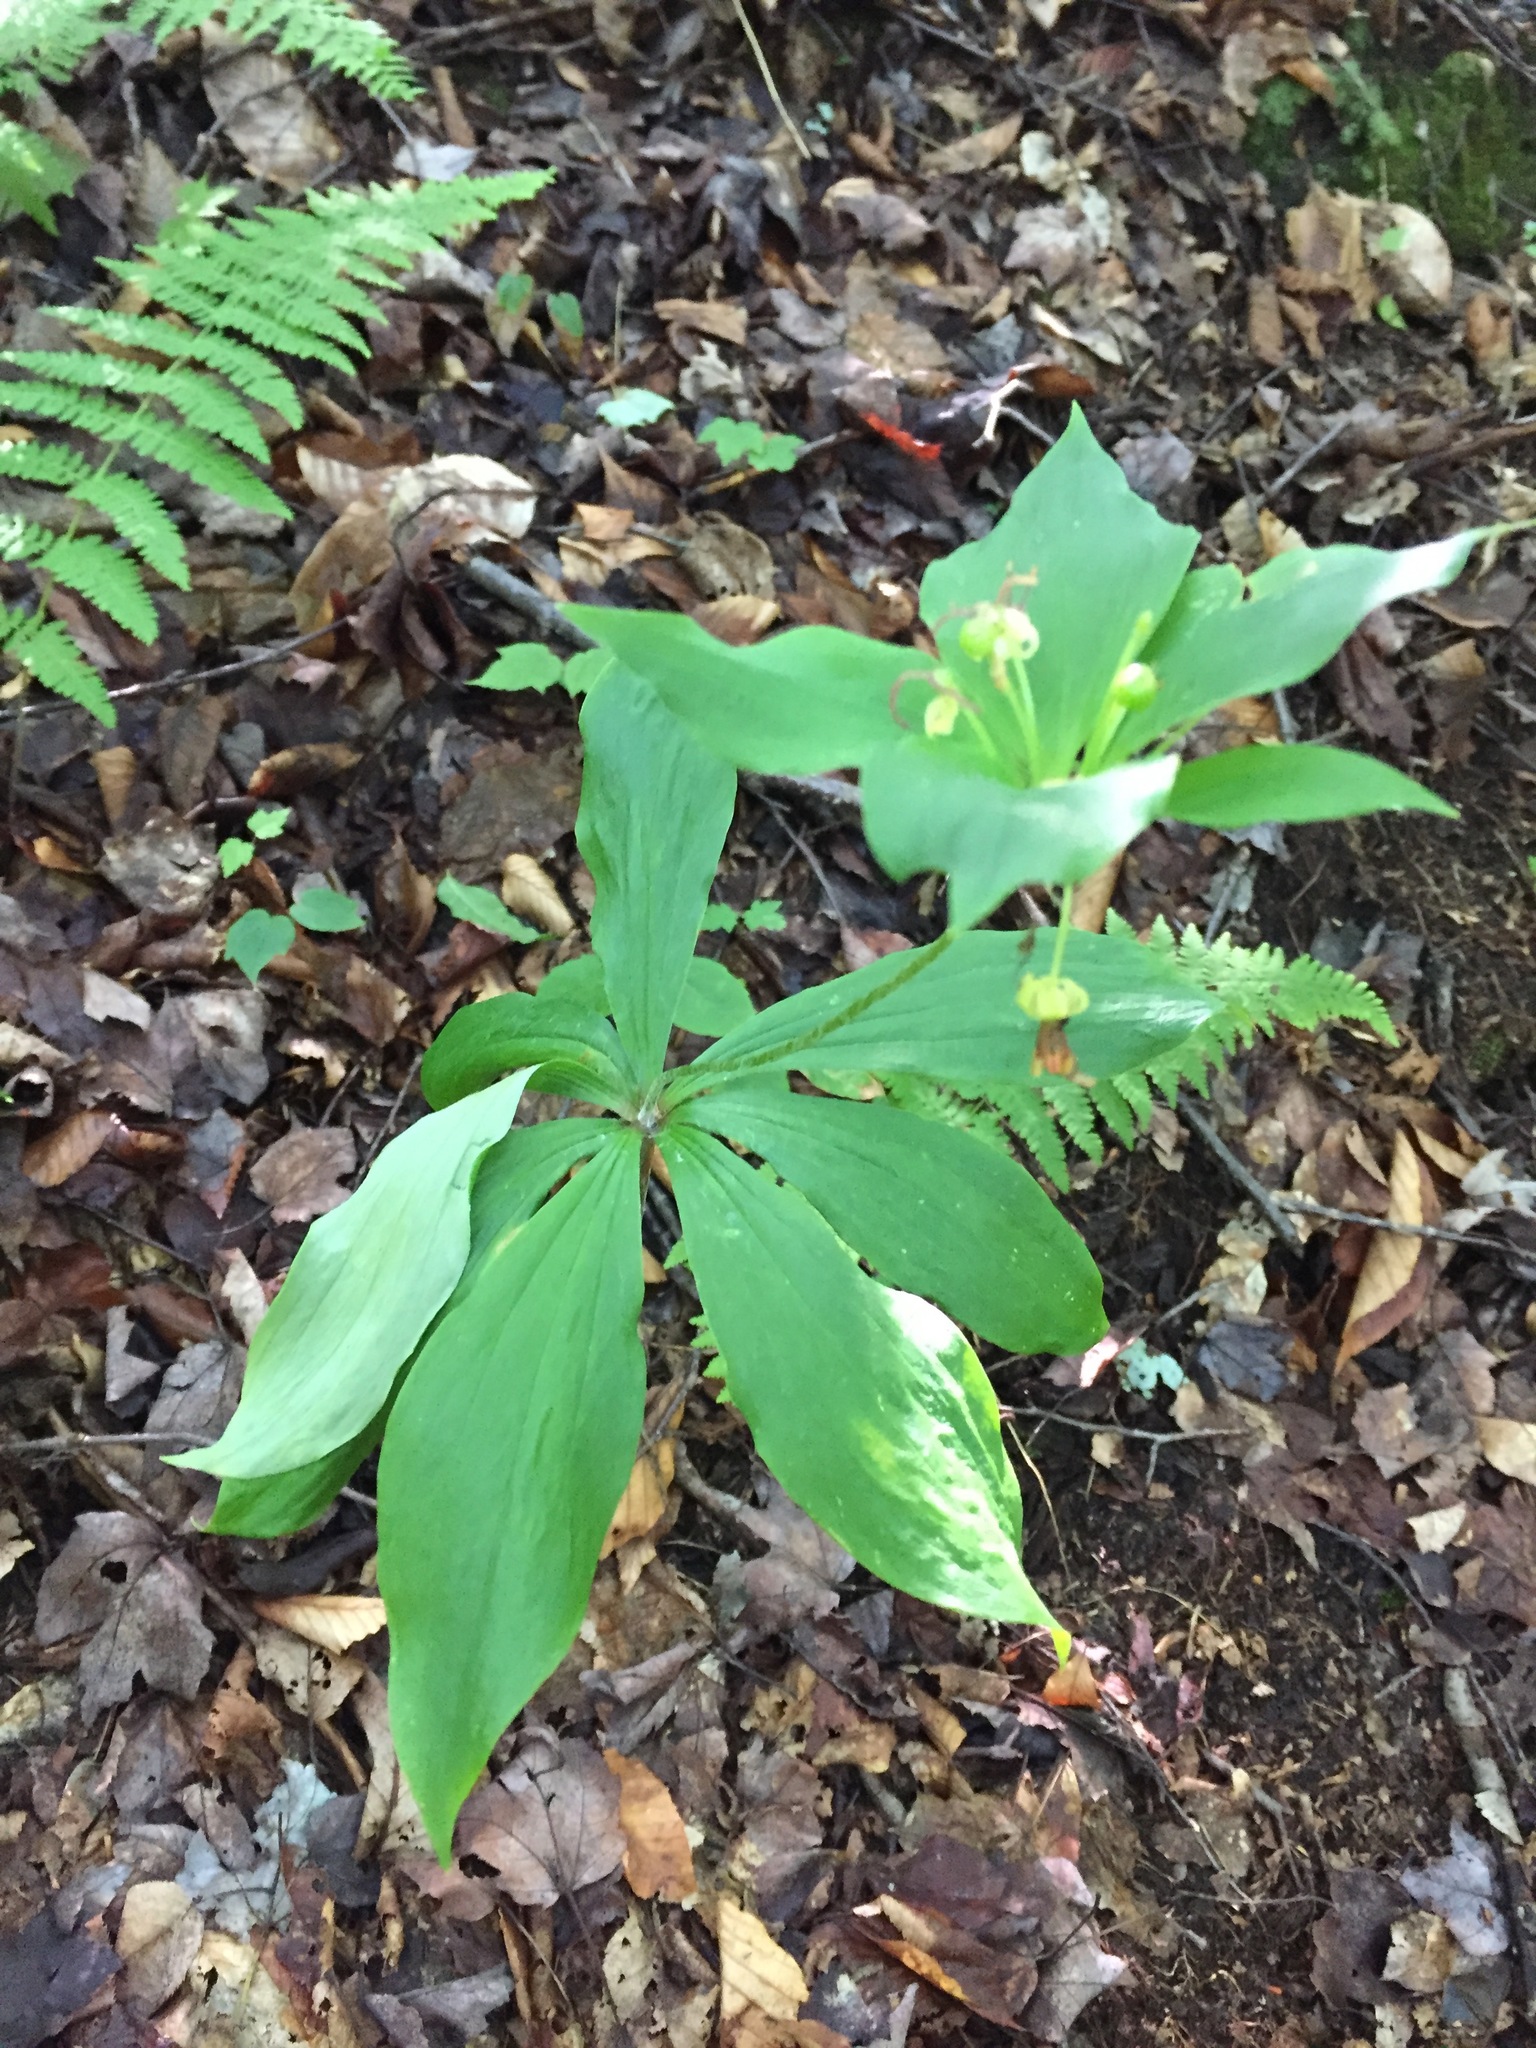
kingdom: Plantae
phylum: Tracheophyta
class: Liliopsida
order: Liliales
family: Liliaceae
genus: Medeola
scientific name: Medeola virginiana
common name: Indian cucumber-root
